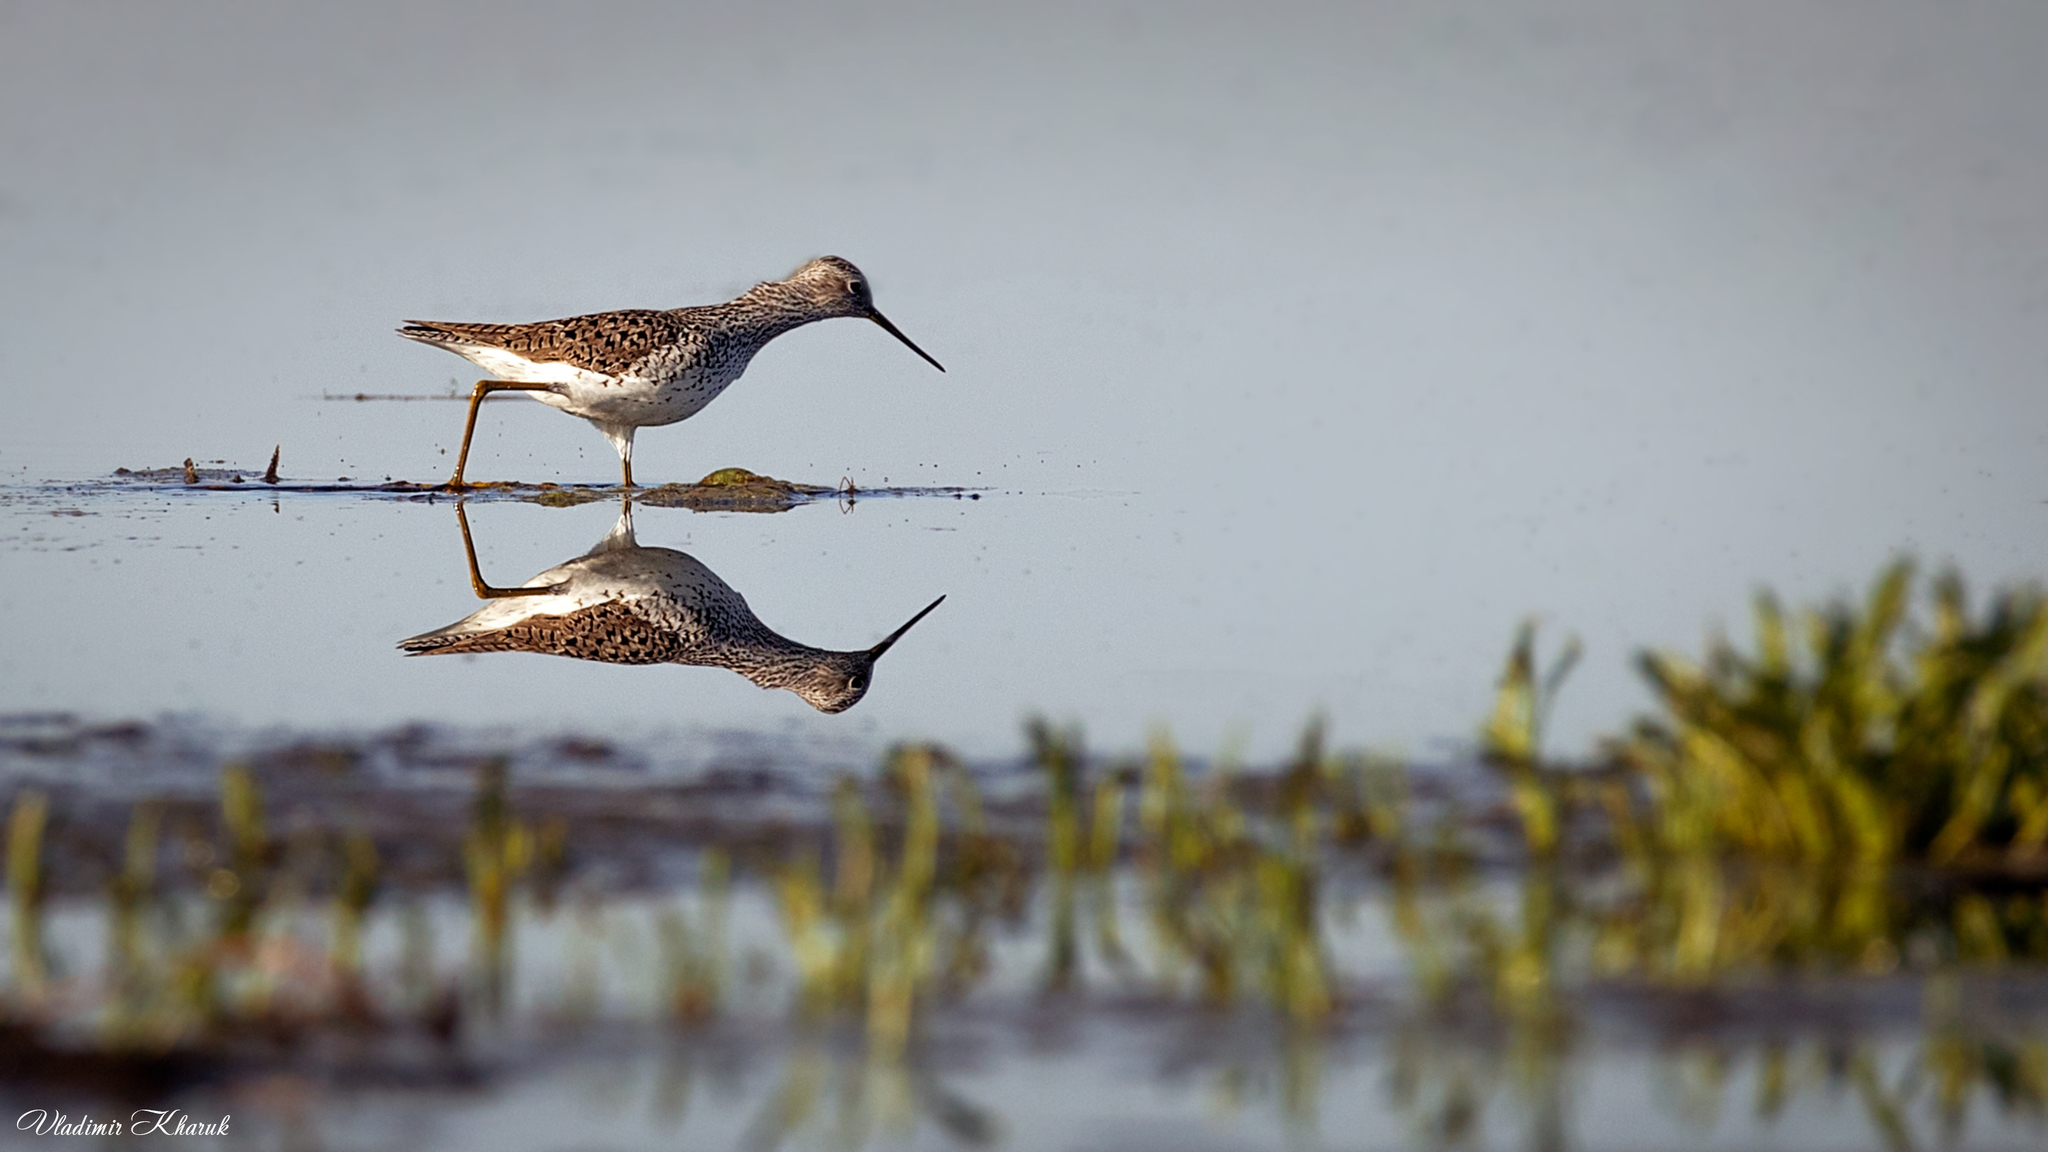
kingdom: Animalia
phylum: Chordata
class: Aves
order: Charadriiformes
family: Scolopacidae
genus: Tringa
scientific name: Tringa stagnatilis
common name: Marsh sandpiper
